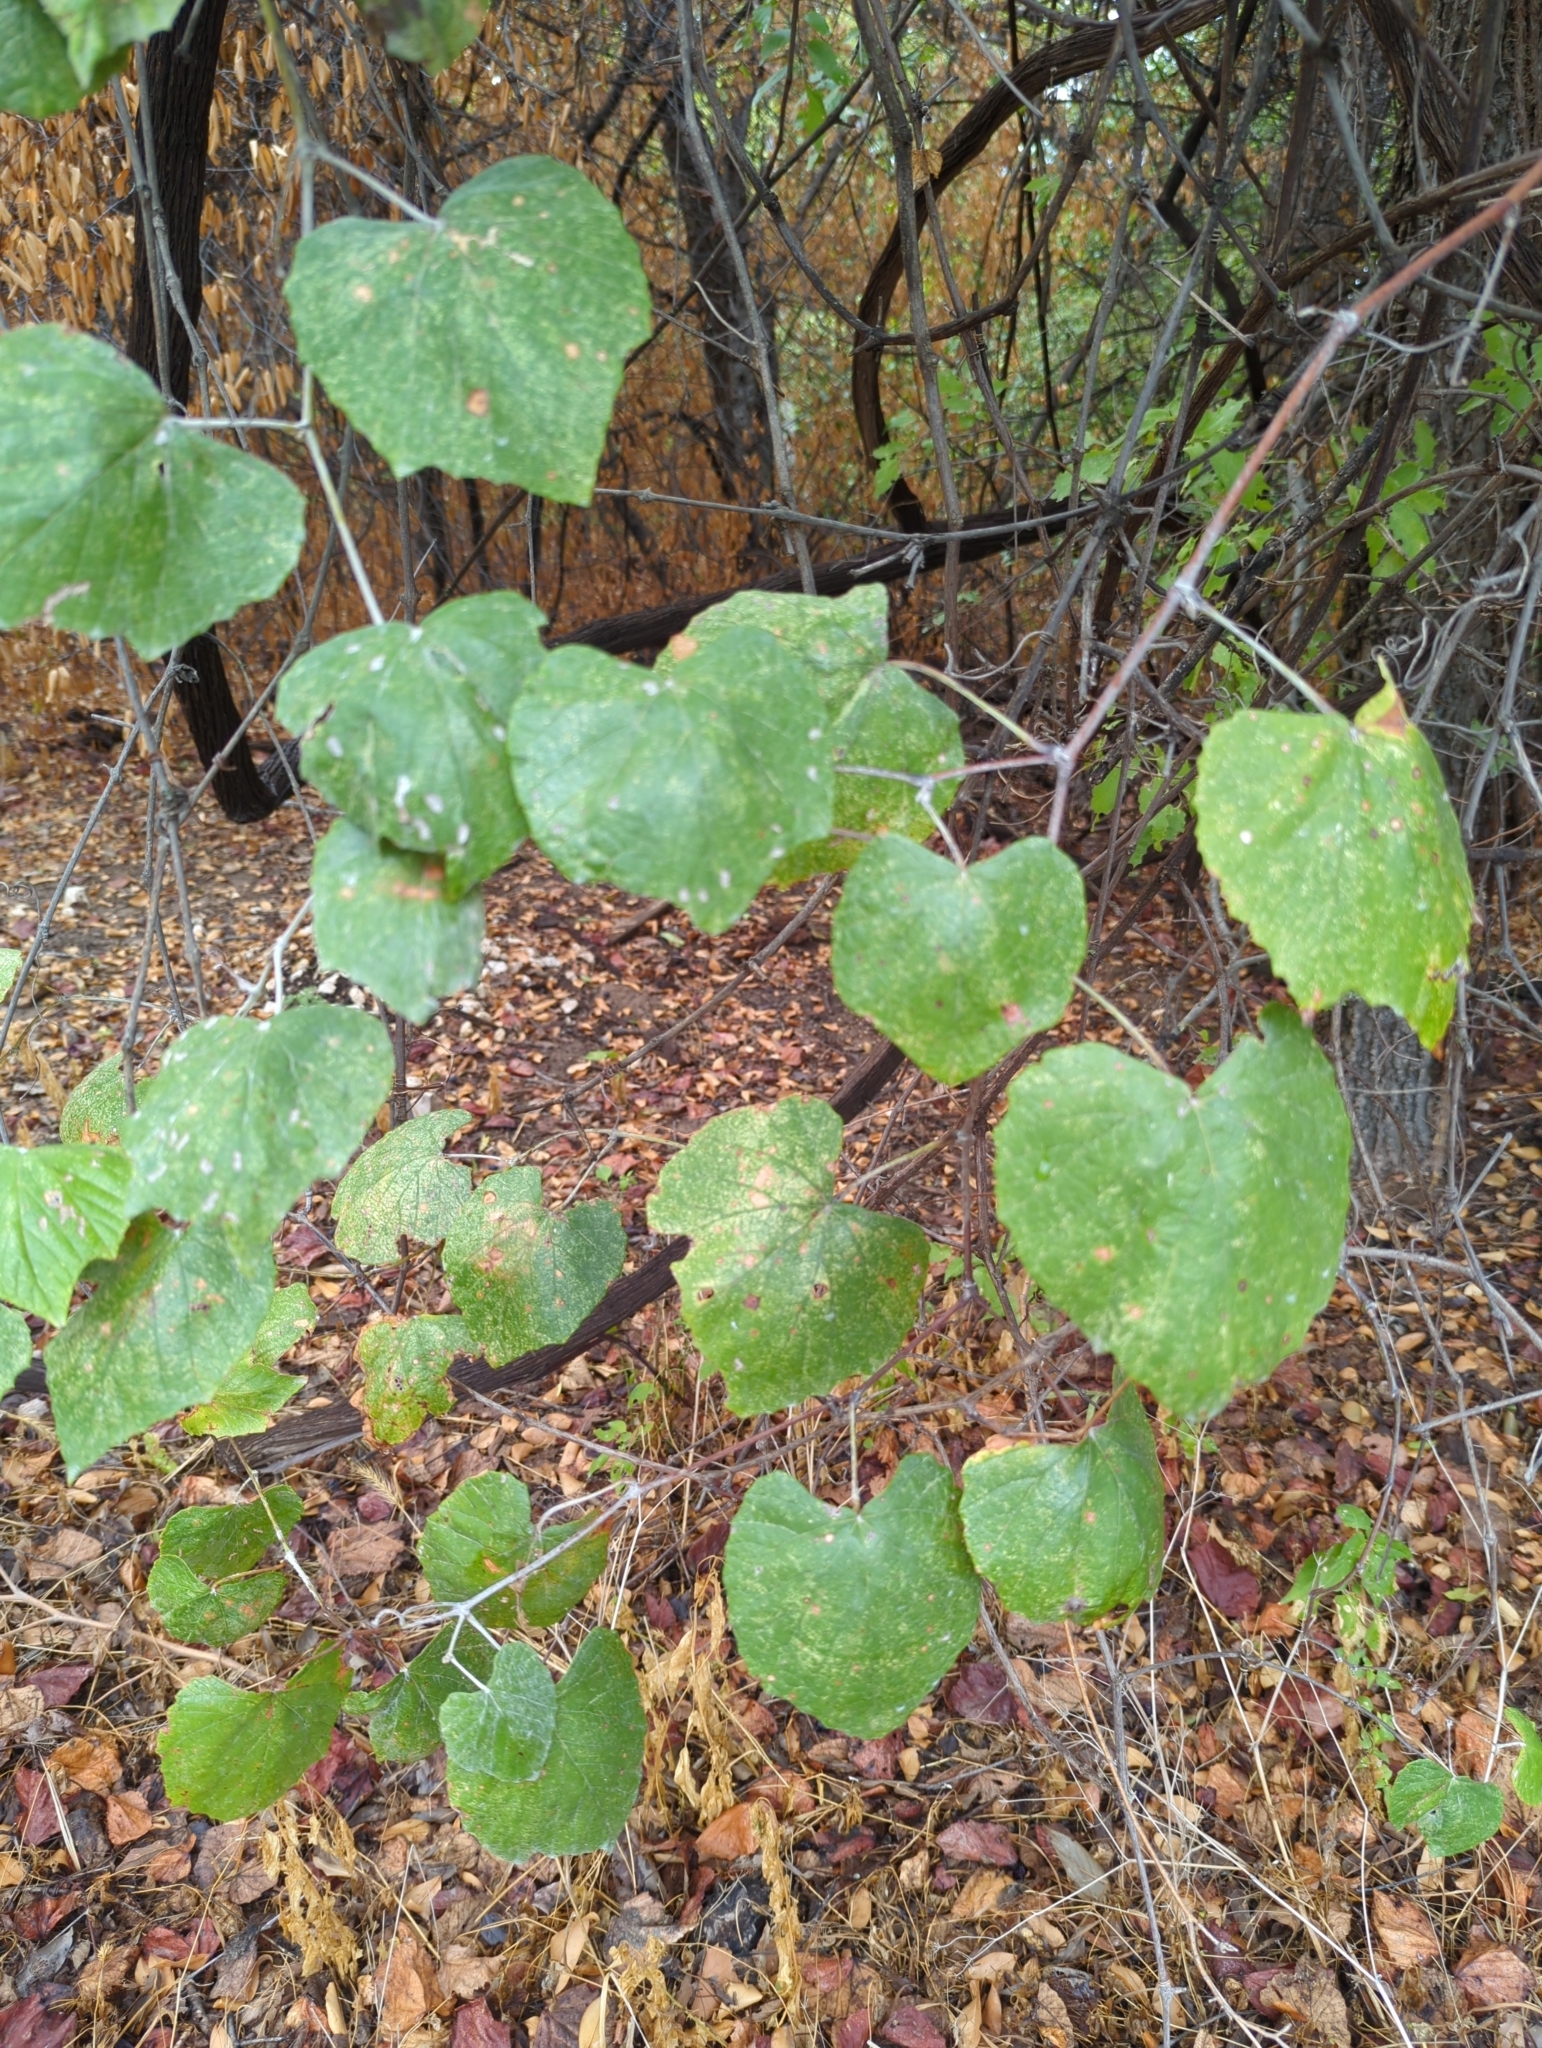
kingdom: Plantae
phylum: Tracheophyta
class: Magnoliopsida
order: Vitales
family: Vitaceae
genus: Vitis
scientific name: Vitis mustangensis
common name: Mustang grape
